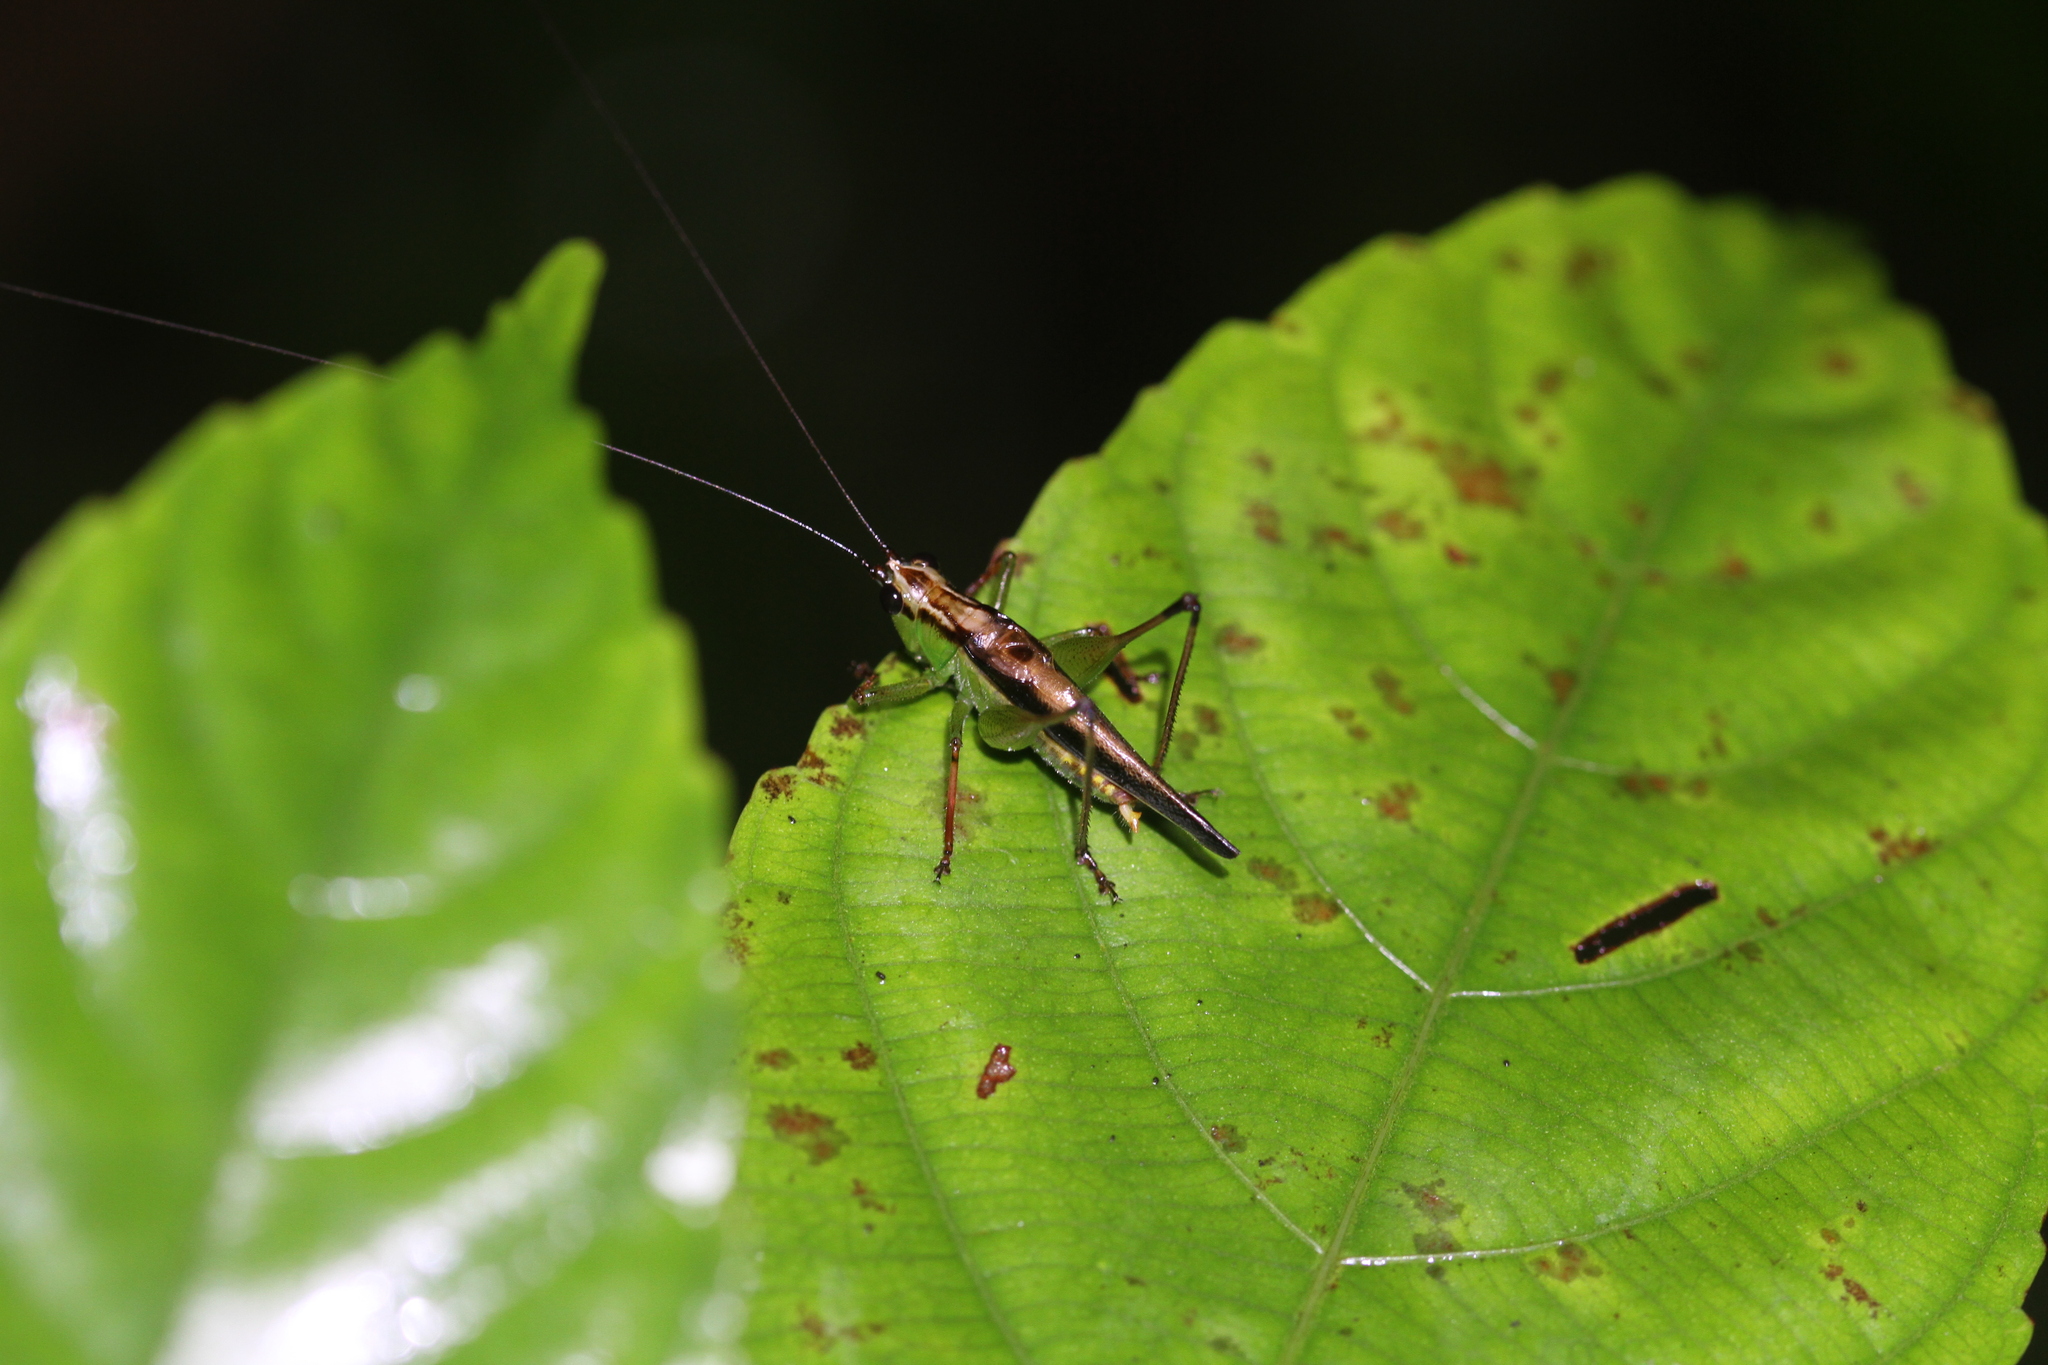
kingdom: Animalia
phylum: Arthropoda
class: Insecta
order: Orthoptera
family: Tettigoniidae
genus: Conocephalus
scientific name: Conocephalus melaenus
